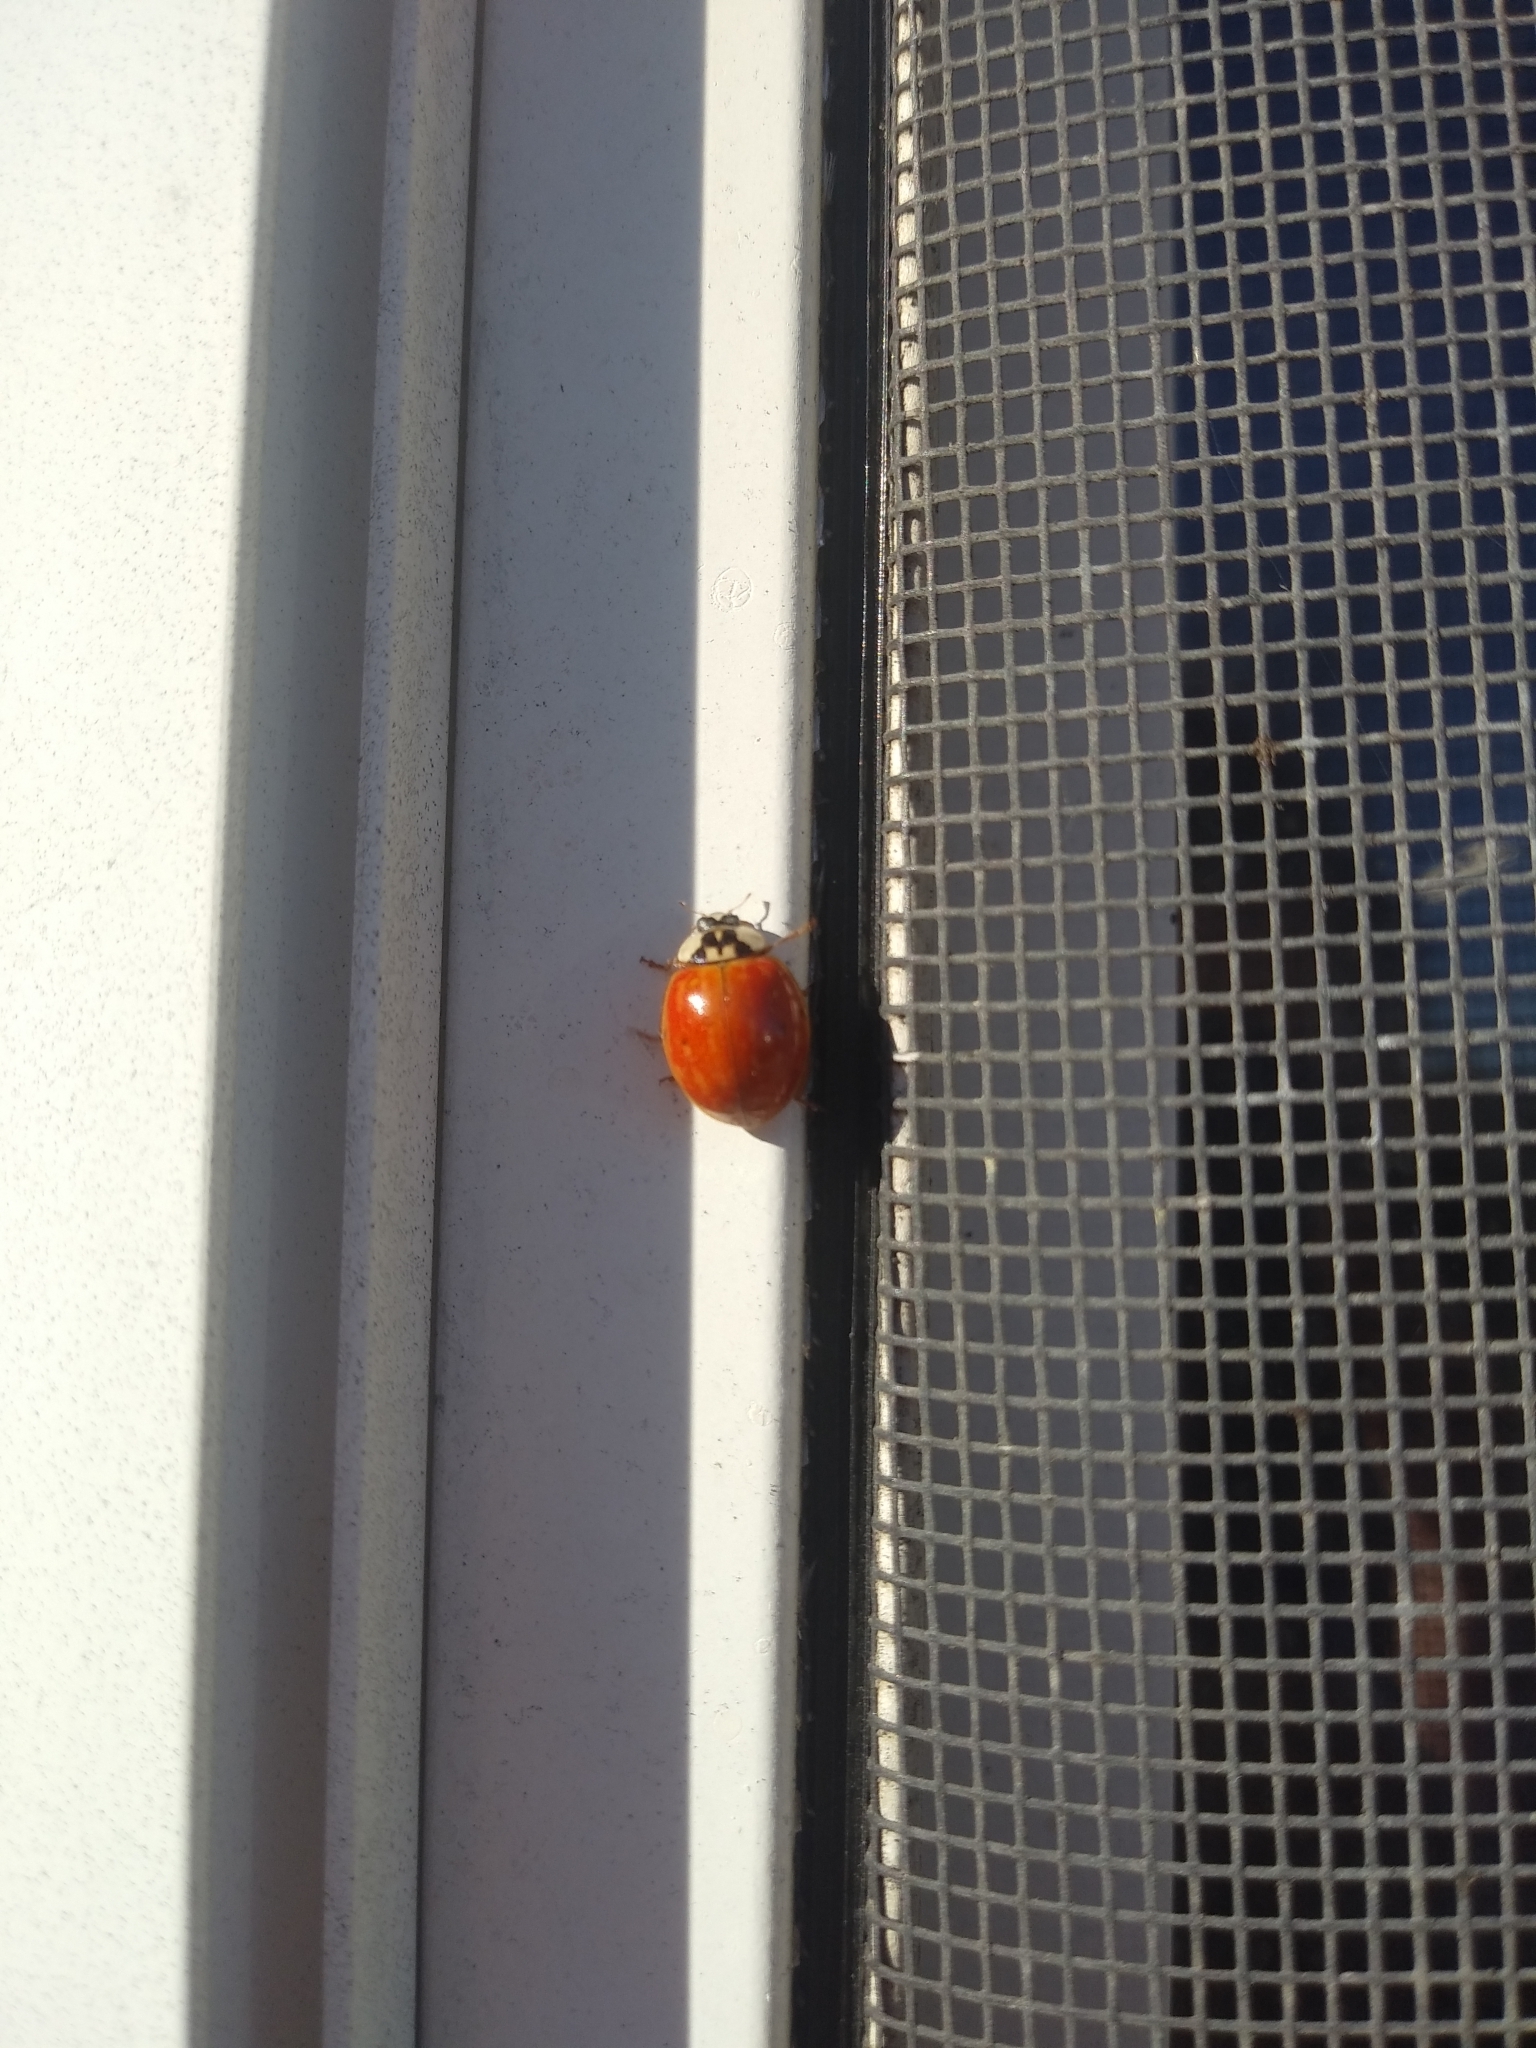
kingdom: Animalia
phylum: Arthropoda
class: Insecta
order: Coleoptera
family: Coccinellidae
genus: Harmonia
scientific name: Harmonia axyridis
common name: Harlequin ladybird
